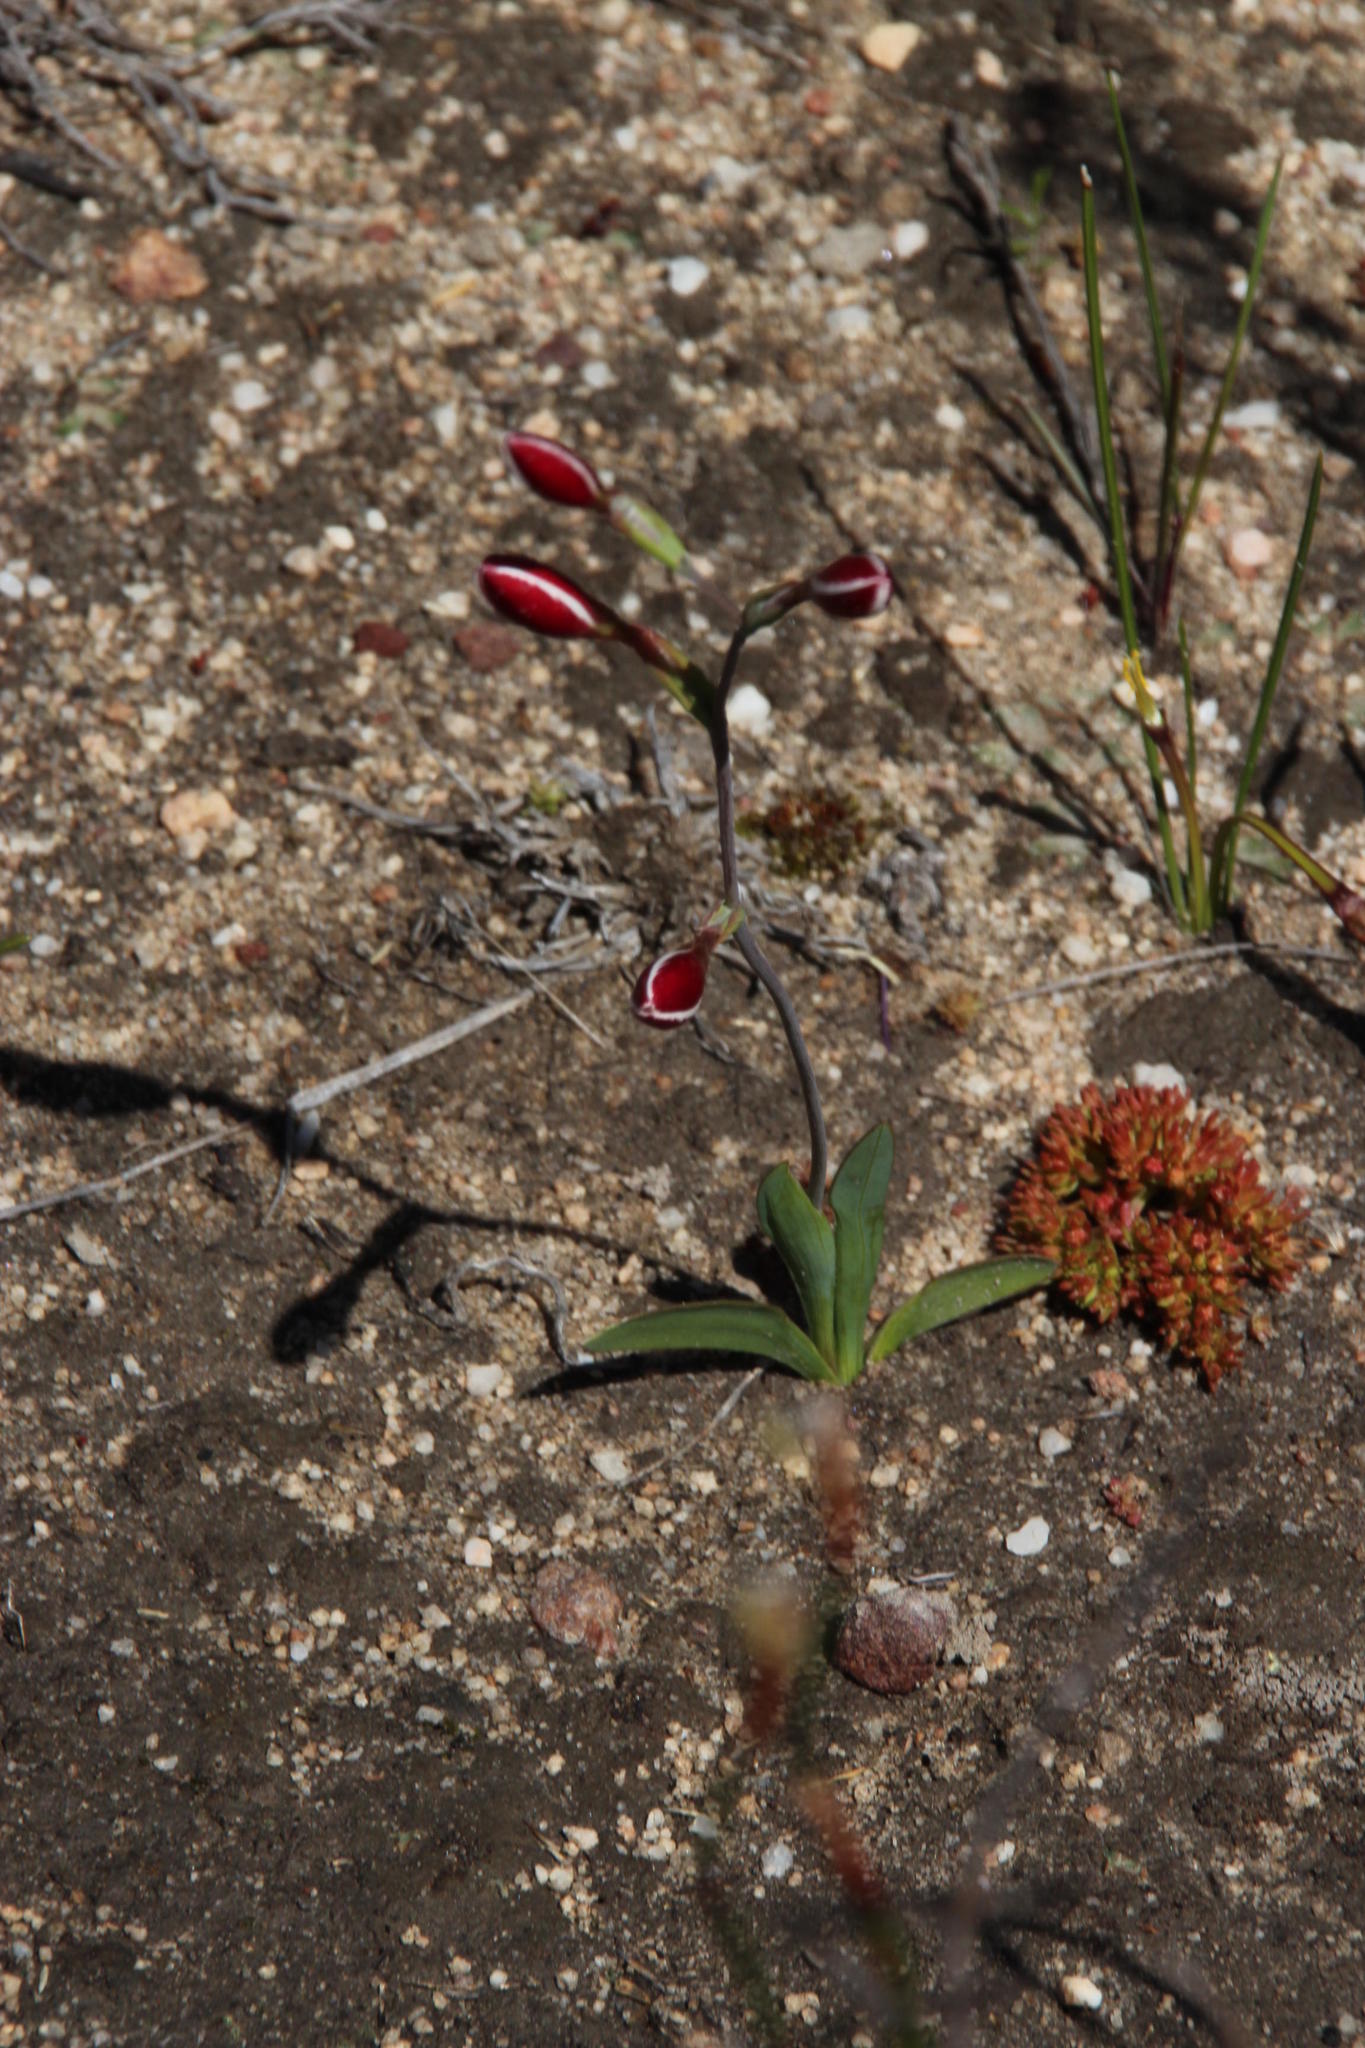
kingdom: Plantae
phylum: Tracheophyta
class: Liliopsida
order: Asparagales
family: Iridaceae
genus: Hesperantha
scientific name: Hesperantha falcata
